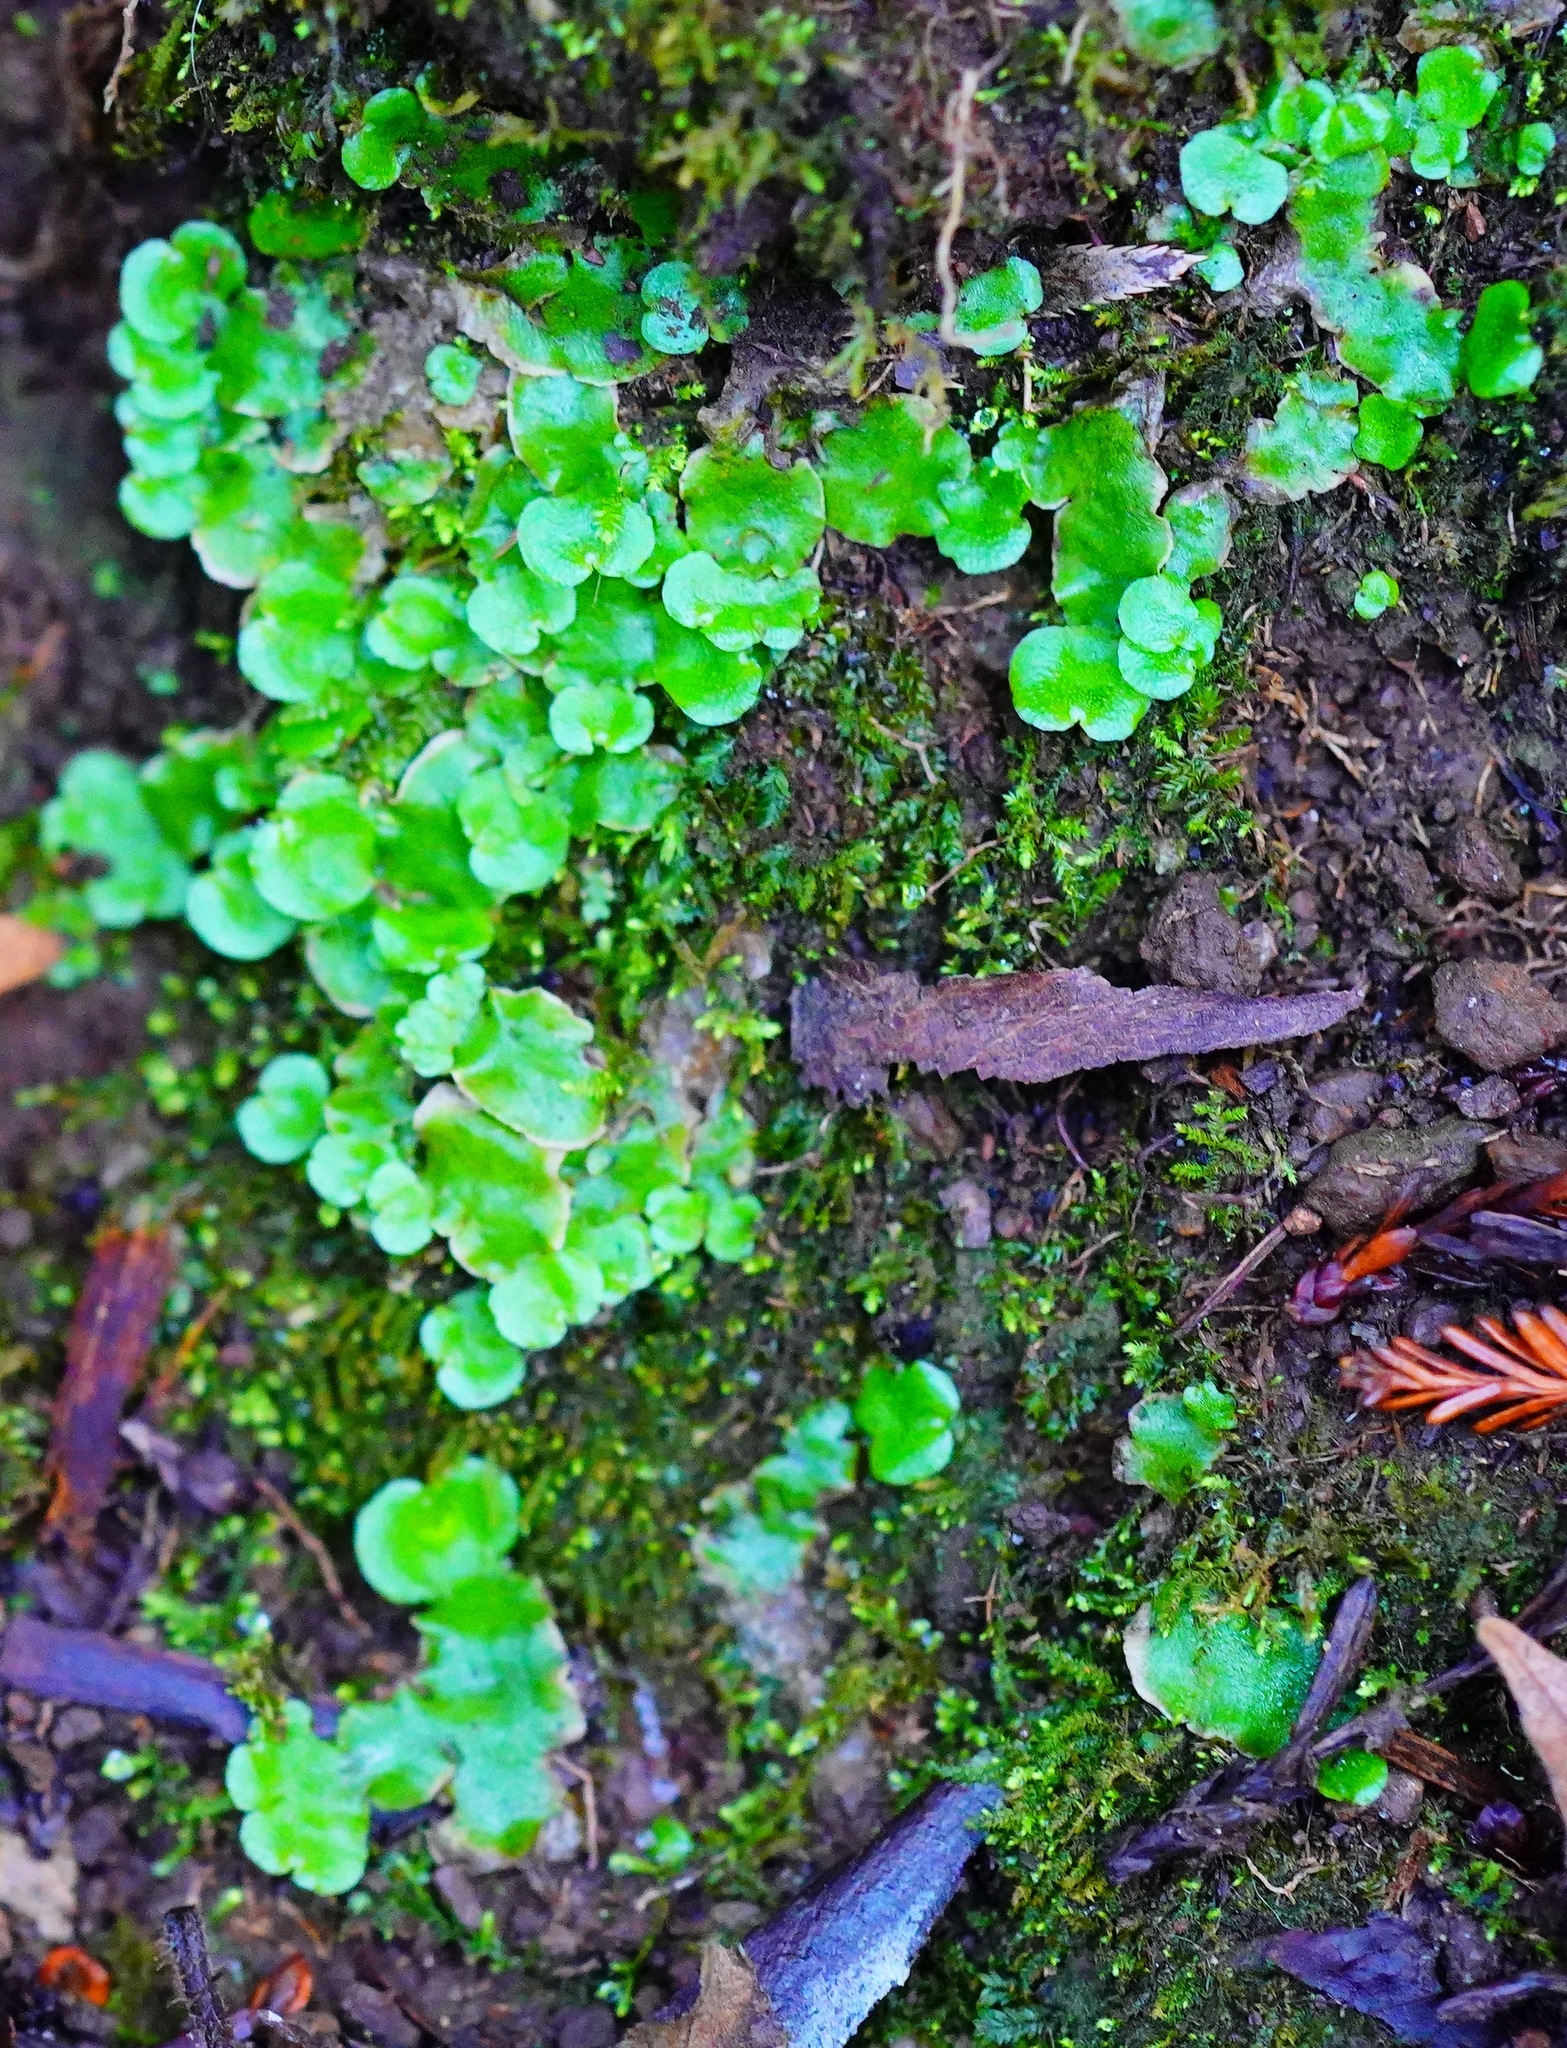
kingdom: Plantae
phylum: Marchantiophyta
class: Marchantiopsida
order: Lunulariales
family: Lunulariaceae
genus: Lunularia
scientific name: Lunularia cruciata
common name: Crescent-cup liverwort
